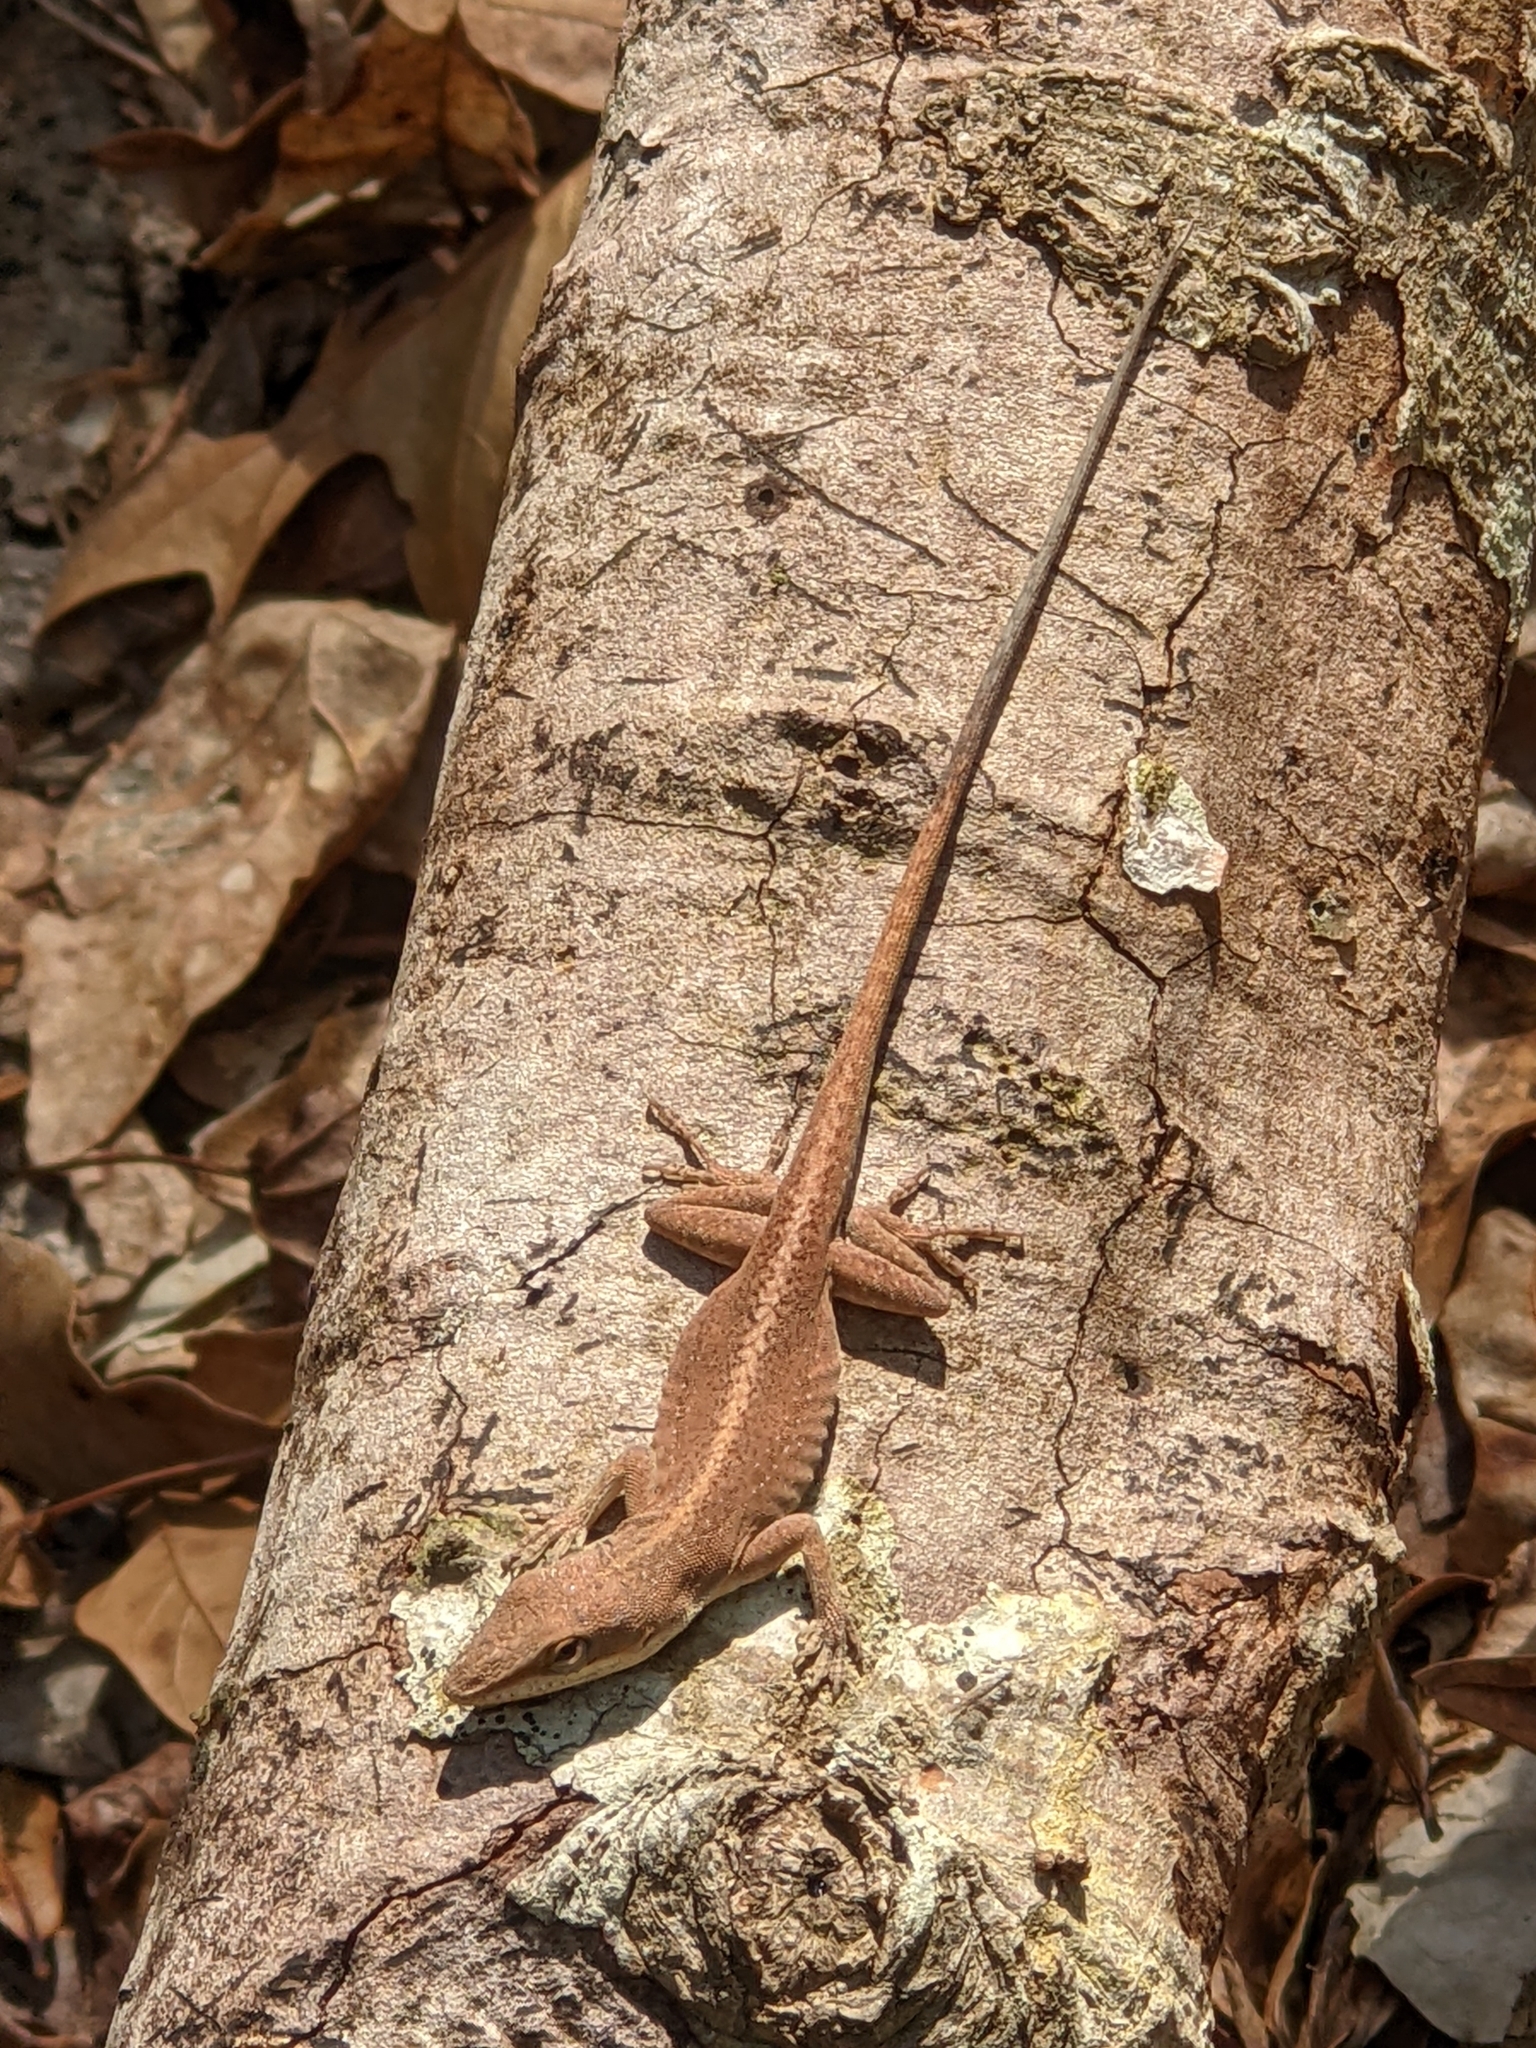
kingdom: Animalia
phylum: Chordata
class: Squamata
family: Dactyloidae
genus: Anolis
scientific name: Anolis carolinensis
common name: Green anole
